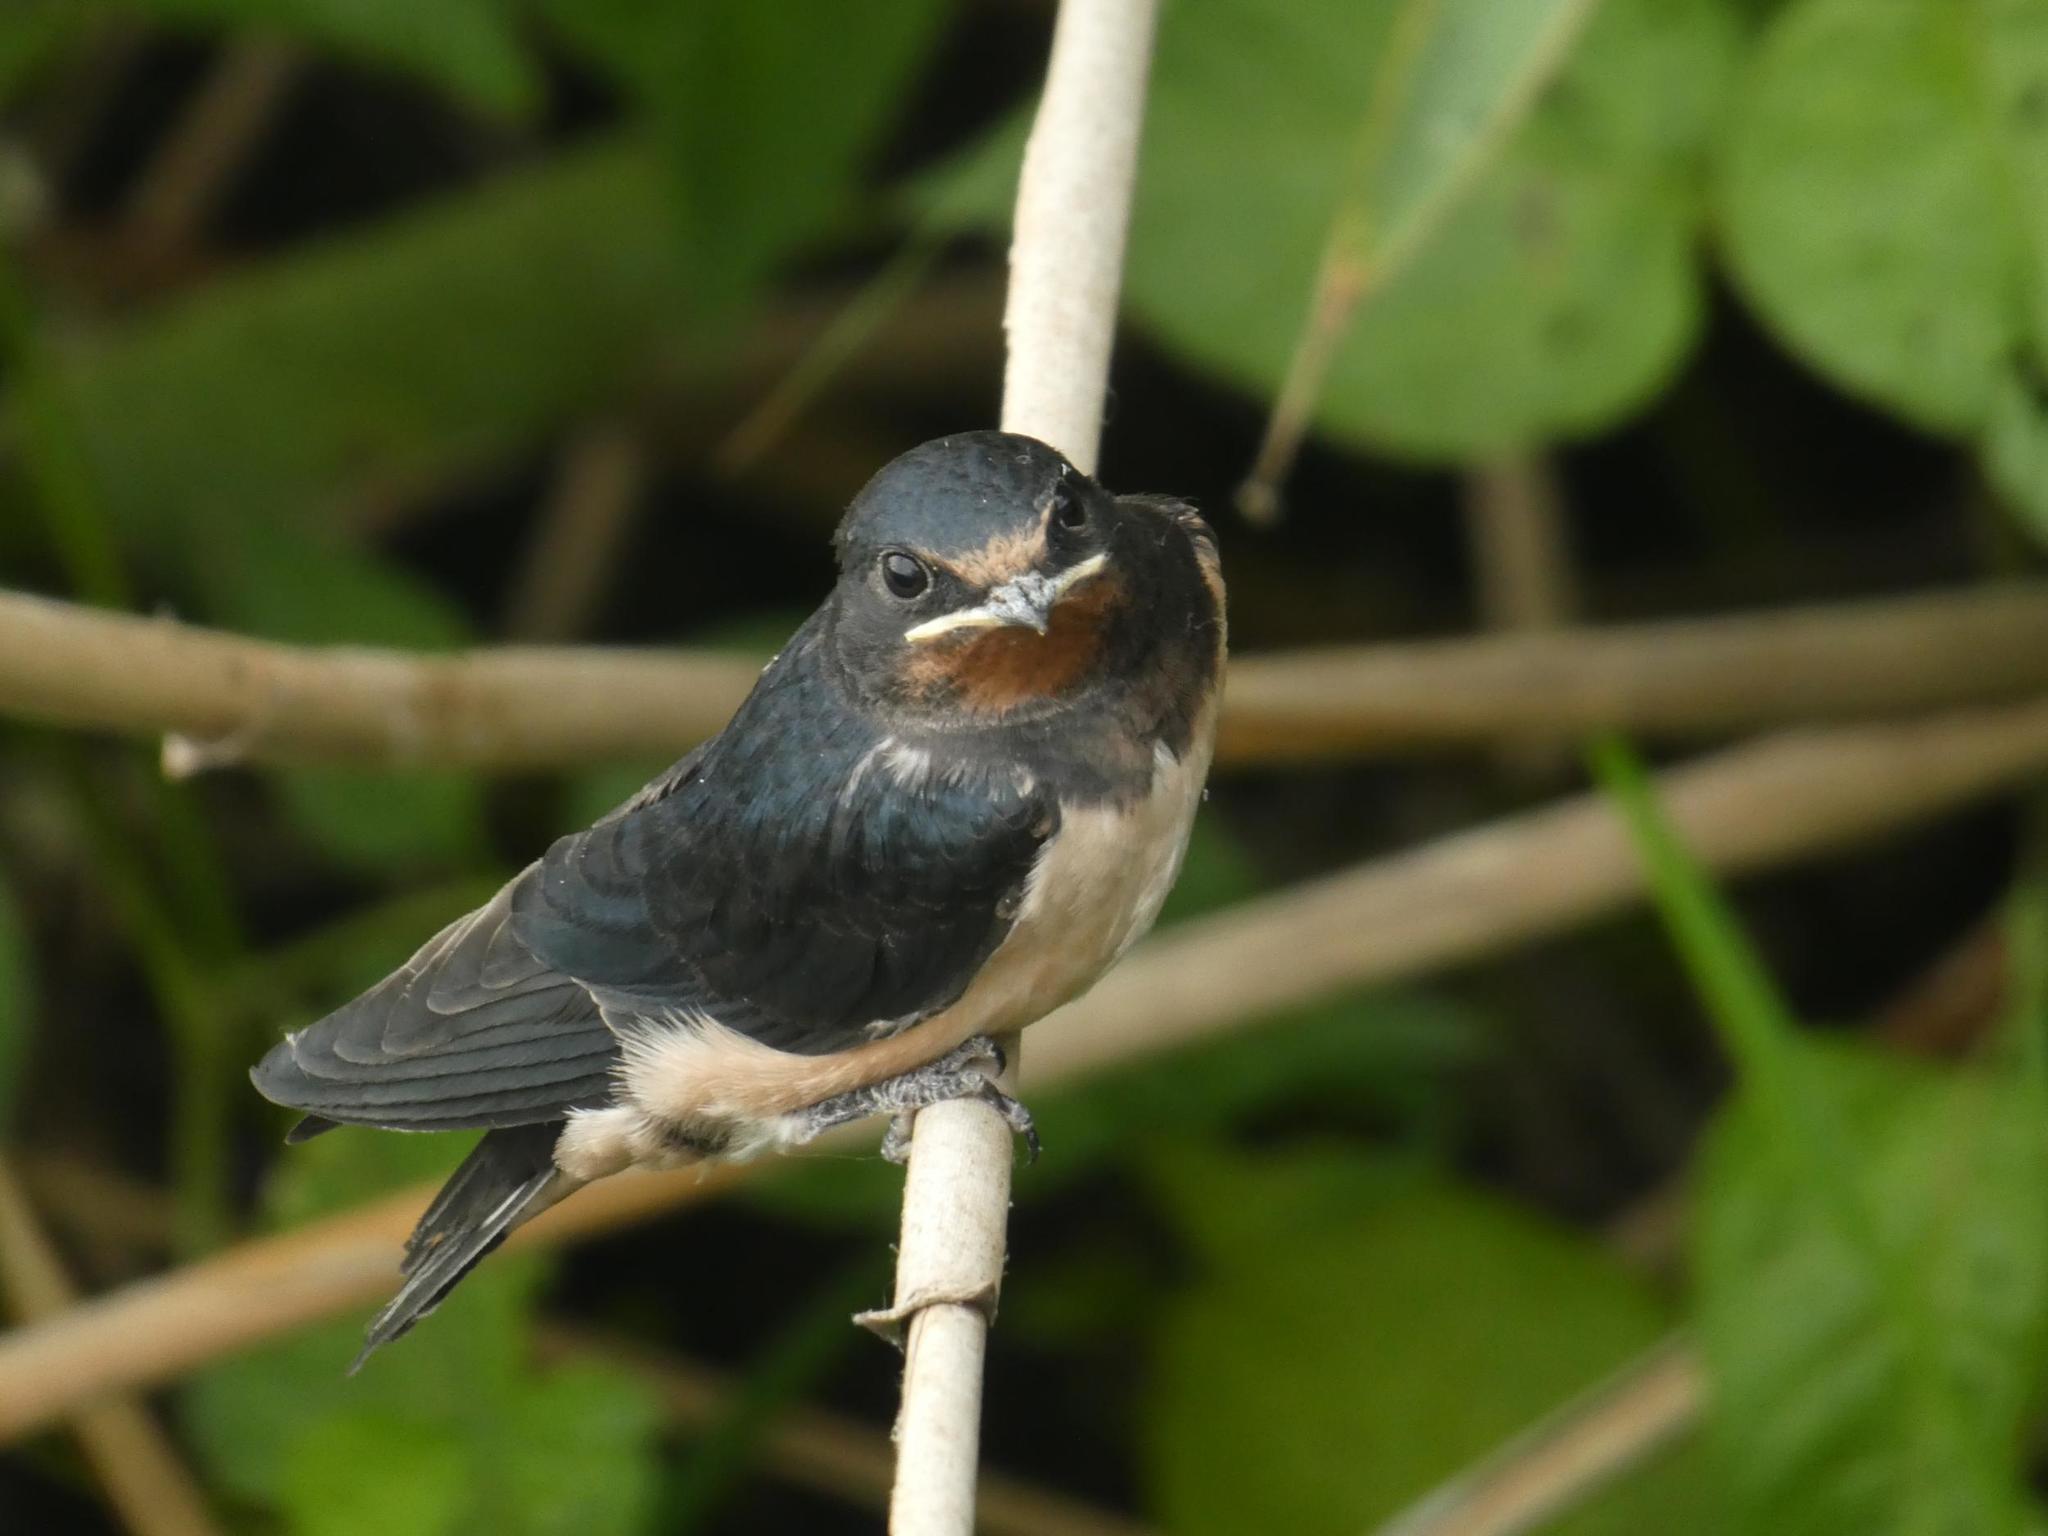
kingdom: Animalia
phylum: Chordata
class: Aves
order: Passeriformes
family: Hirundinidae
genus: Hirundo
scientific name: Hirundo rustica
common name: Barn swallow
